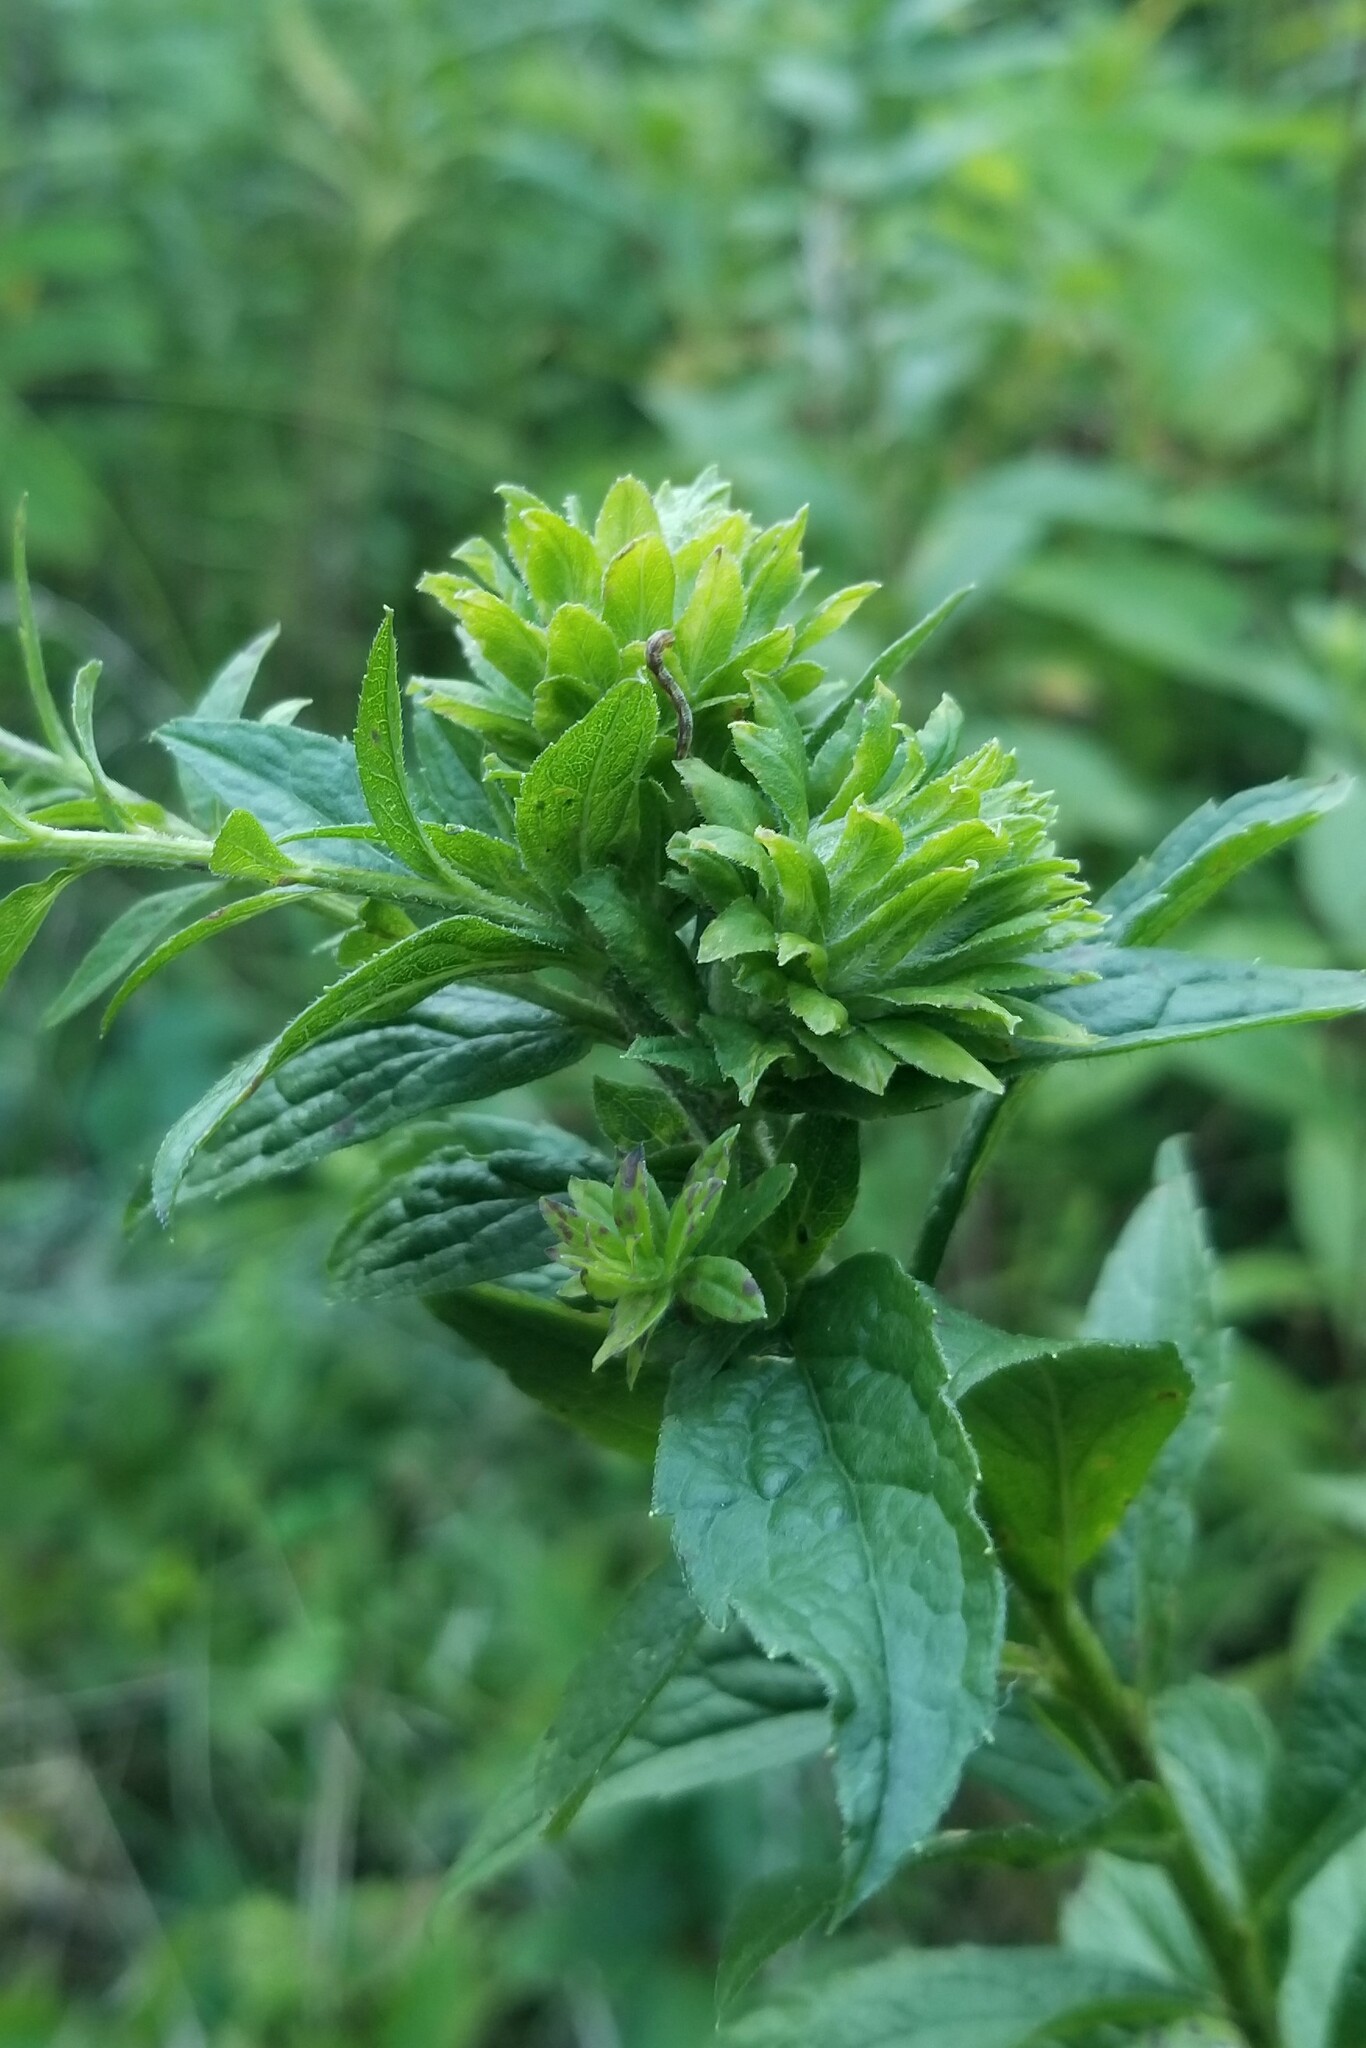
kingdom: Animalia
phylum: Arthropoda
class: Insecta
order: Diptera
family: Tephritidae
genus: Procecidochares
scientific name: Procecidochares atra
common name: Goldenrod brussels sprout gall fly
